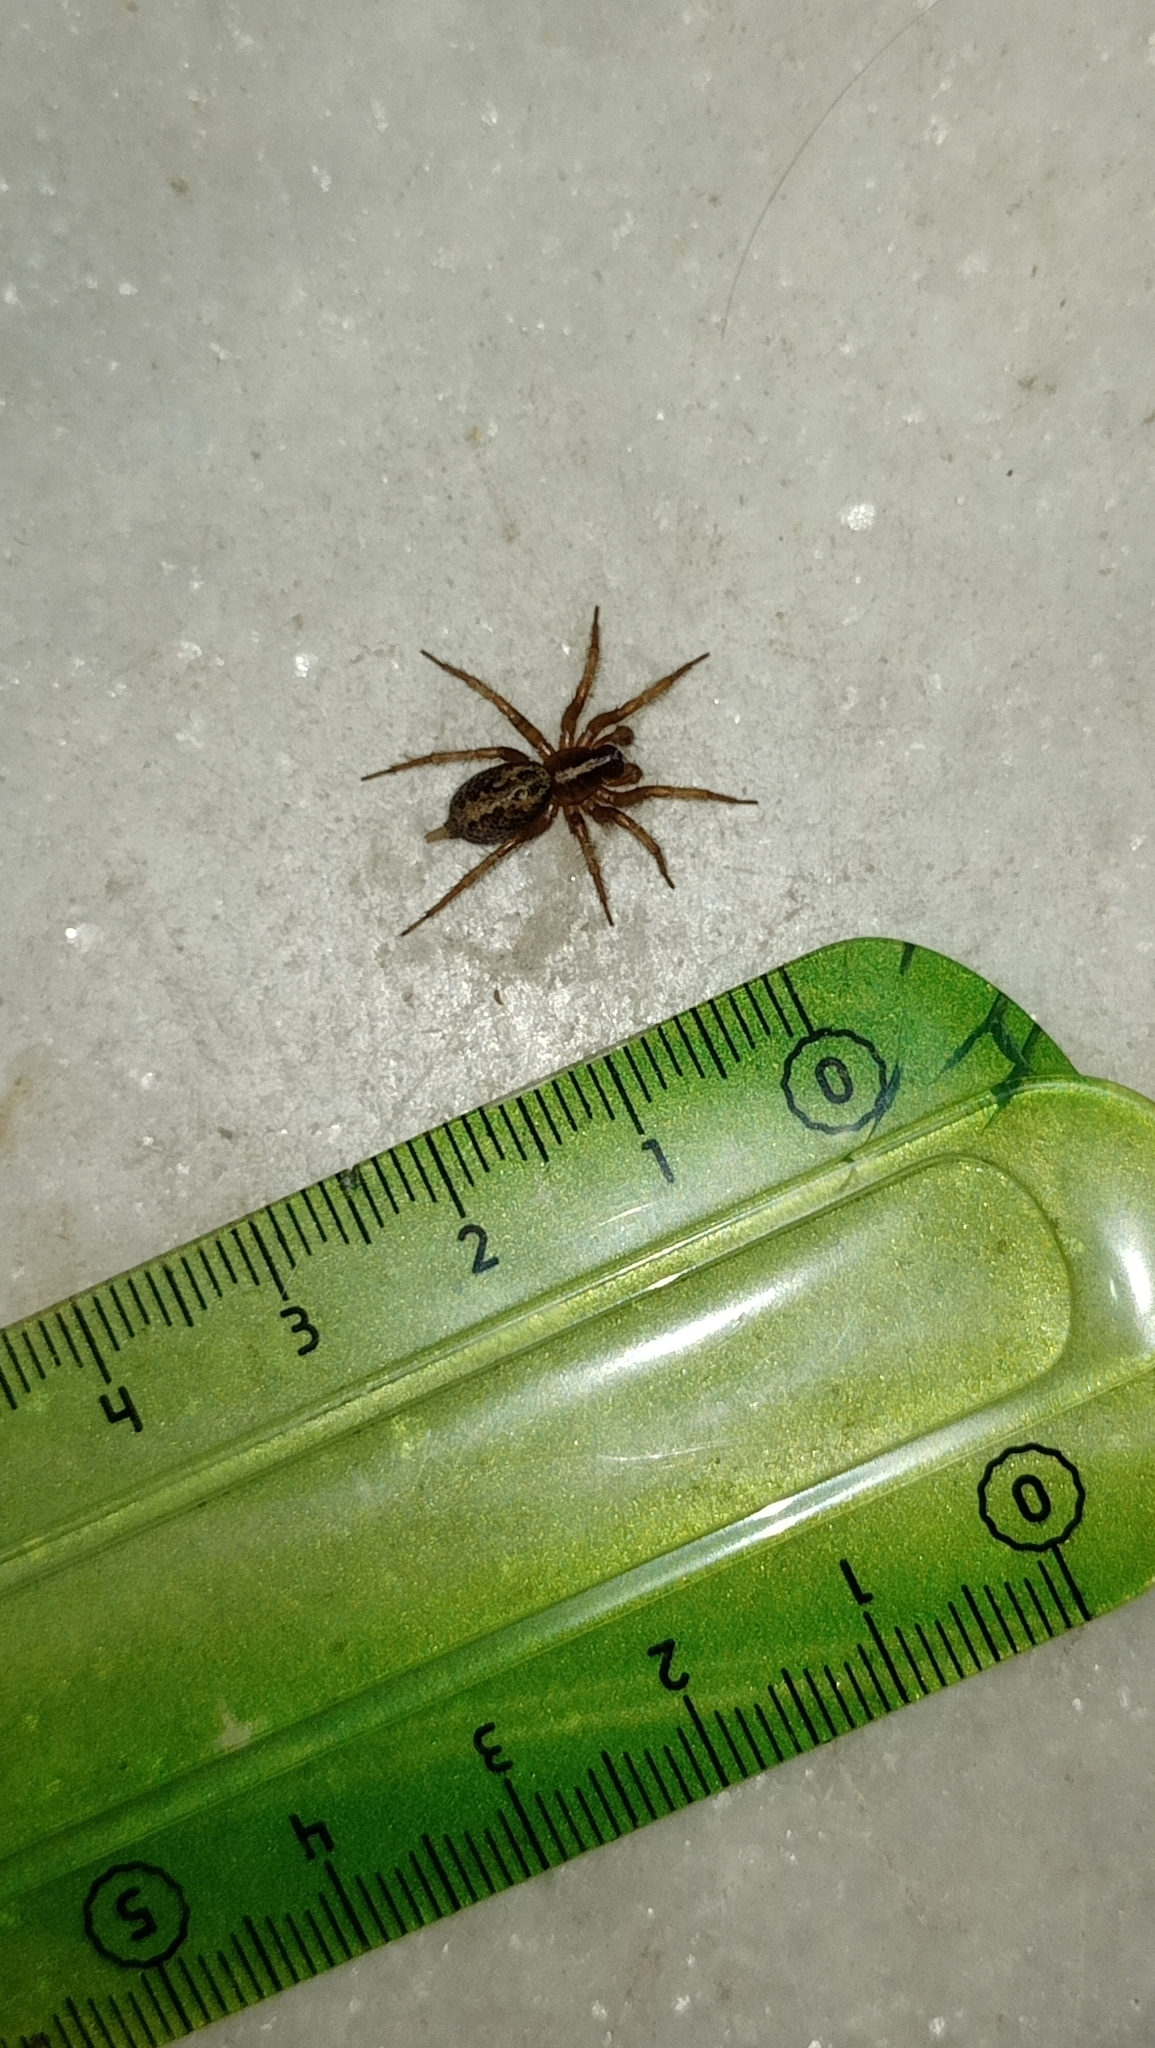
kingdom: Animalia
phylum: Arthropoda
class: Arachnida
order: Araneae
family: Agelenidae
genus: Maimuna
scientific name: Maimuna vestita
